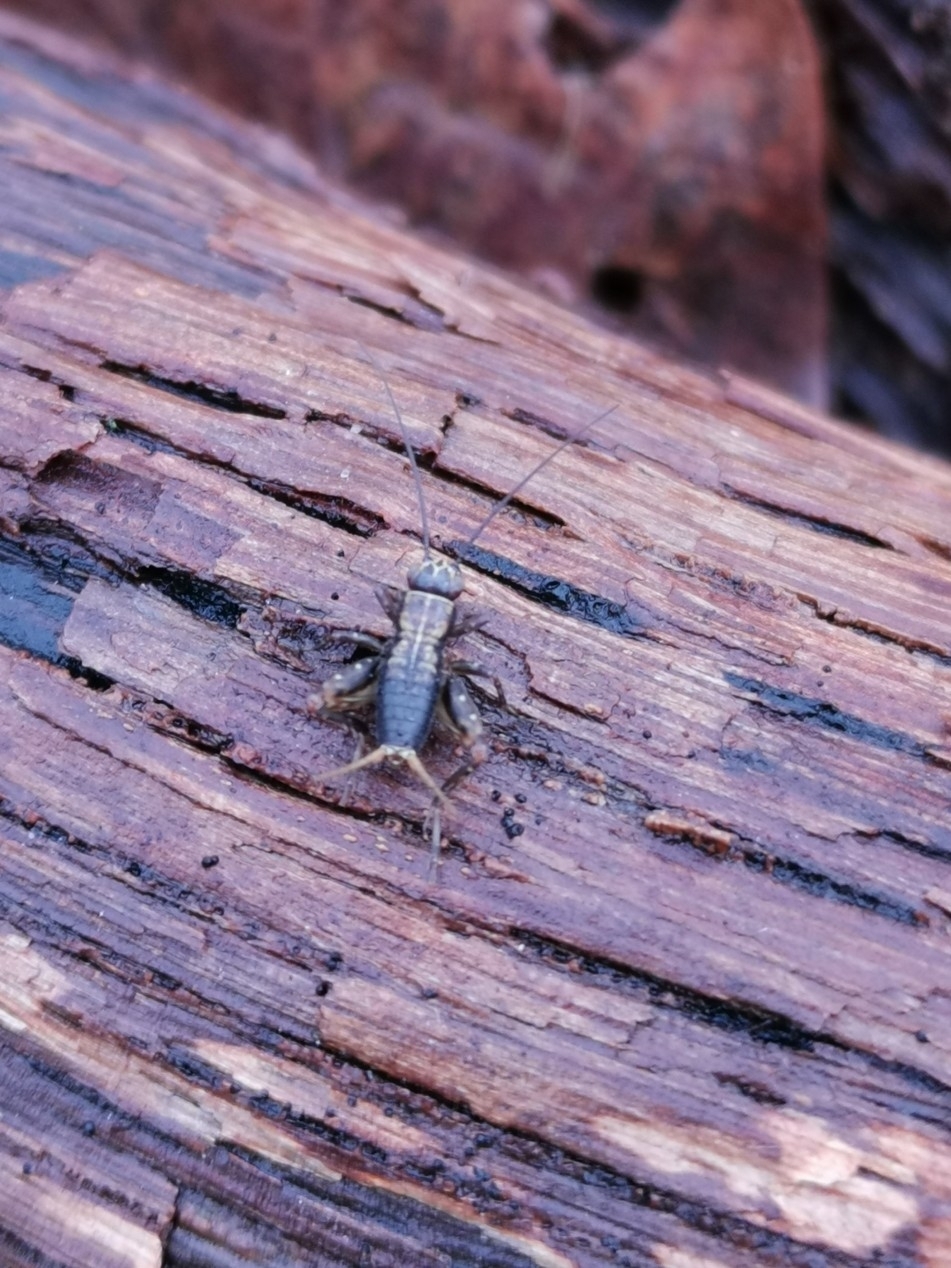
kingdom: Animalia
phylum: Arthropoda
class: Insecta
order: Orthoptera
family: Trigonidiidae
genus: Nemobius
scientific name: Nemobius sylvestris
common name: Wood-cricket
